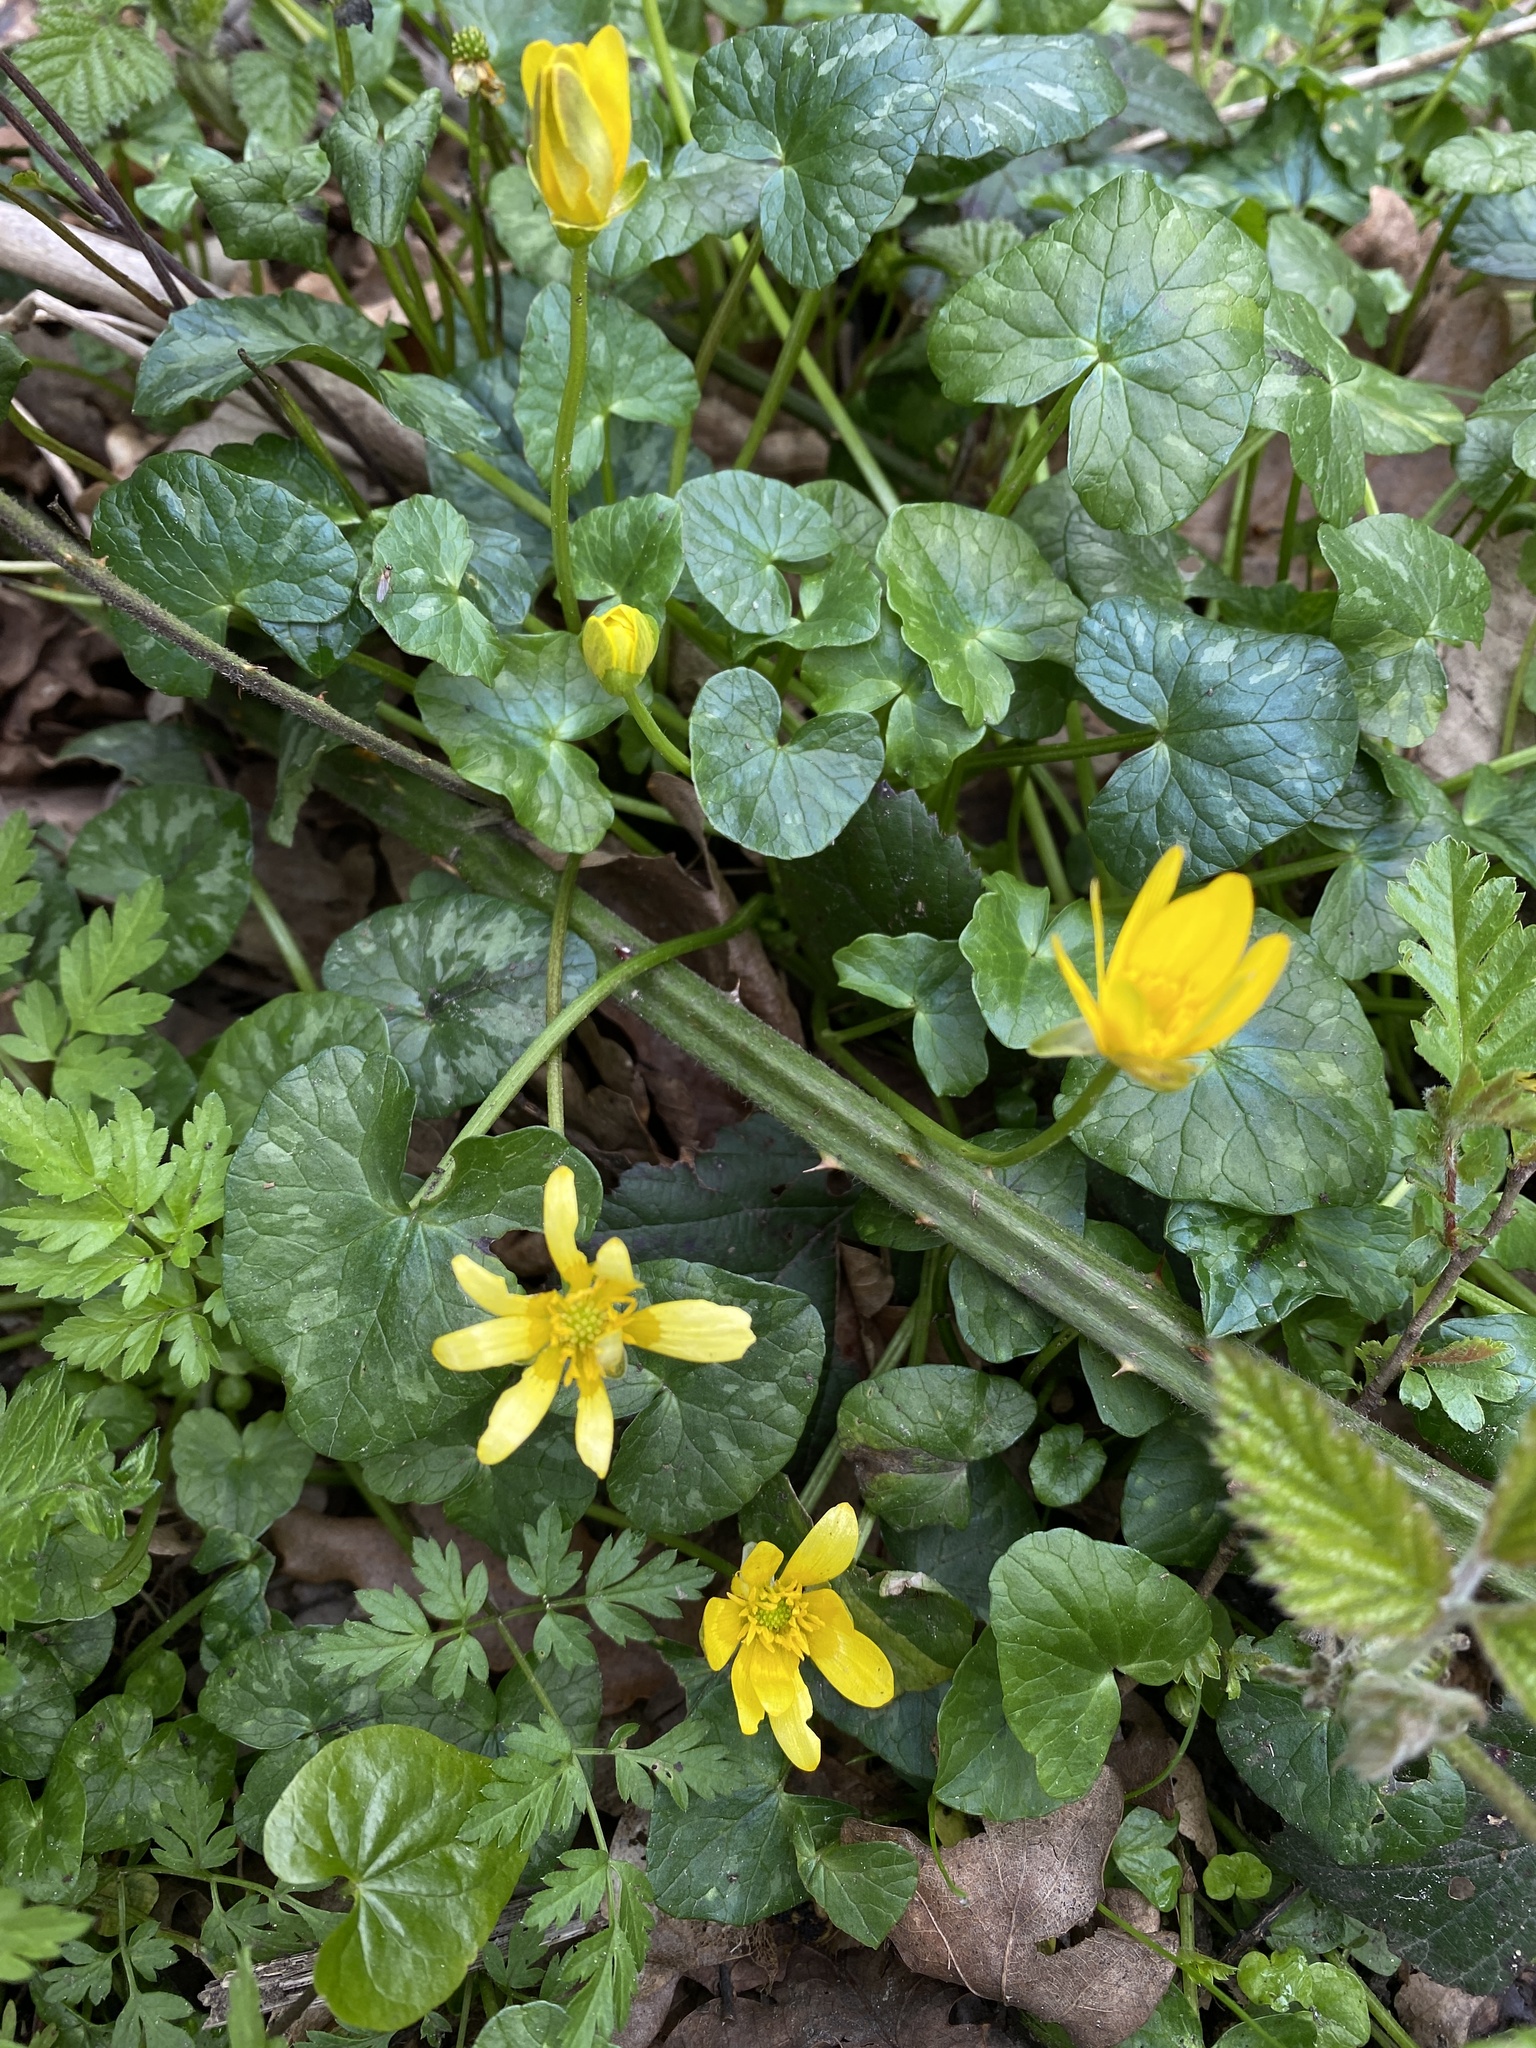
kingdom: Plantae
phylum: Tracheophyta
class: Magnoliopsida
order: Ranunculales
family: Ranunculaceae
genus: Ficaria
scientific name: Ficaria verna
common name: Lesser celandine
